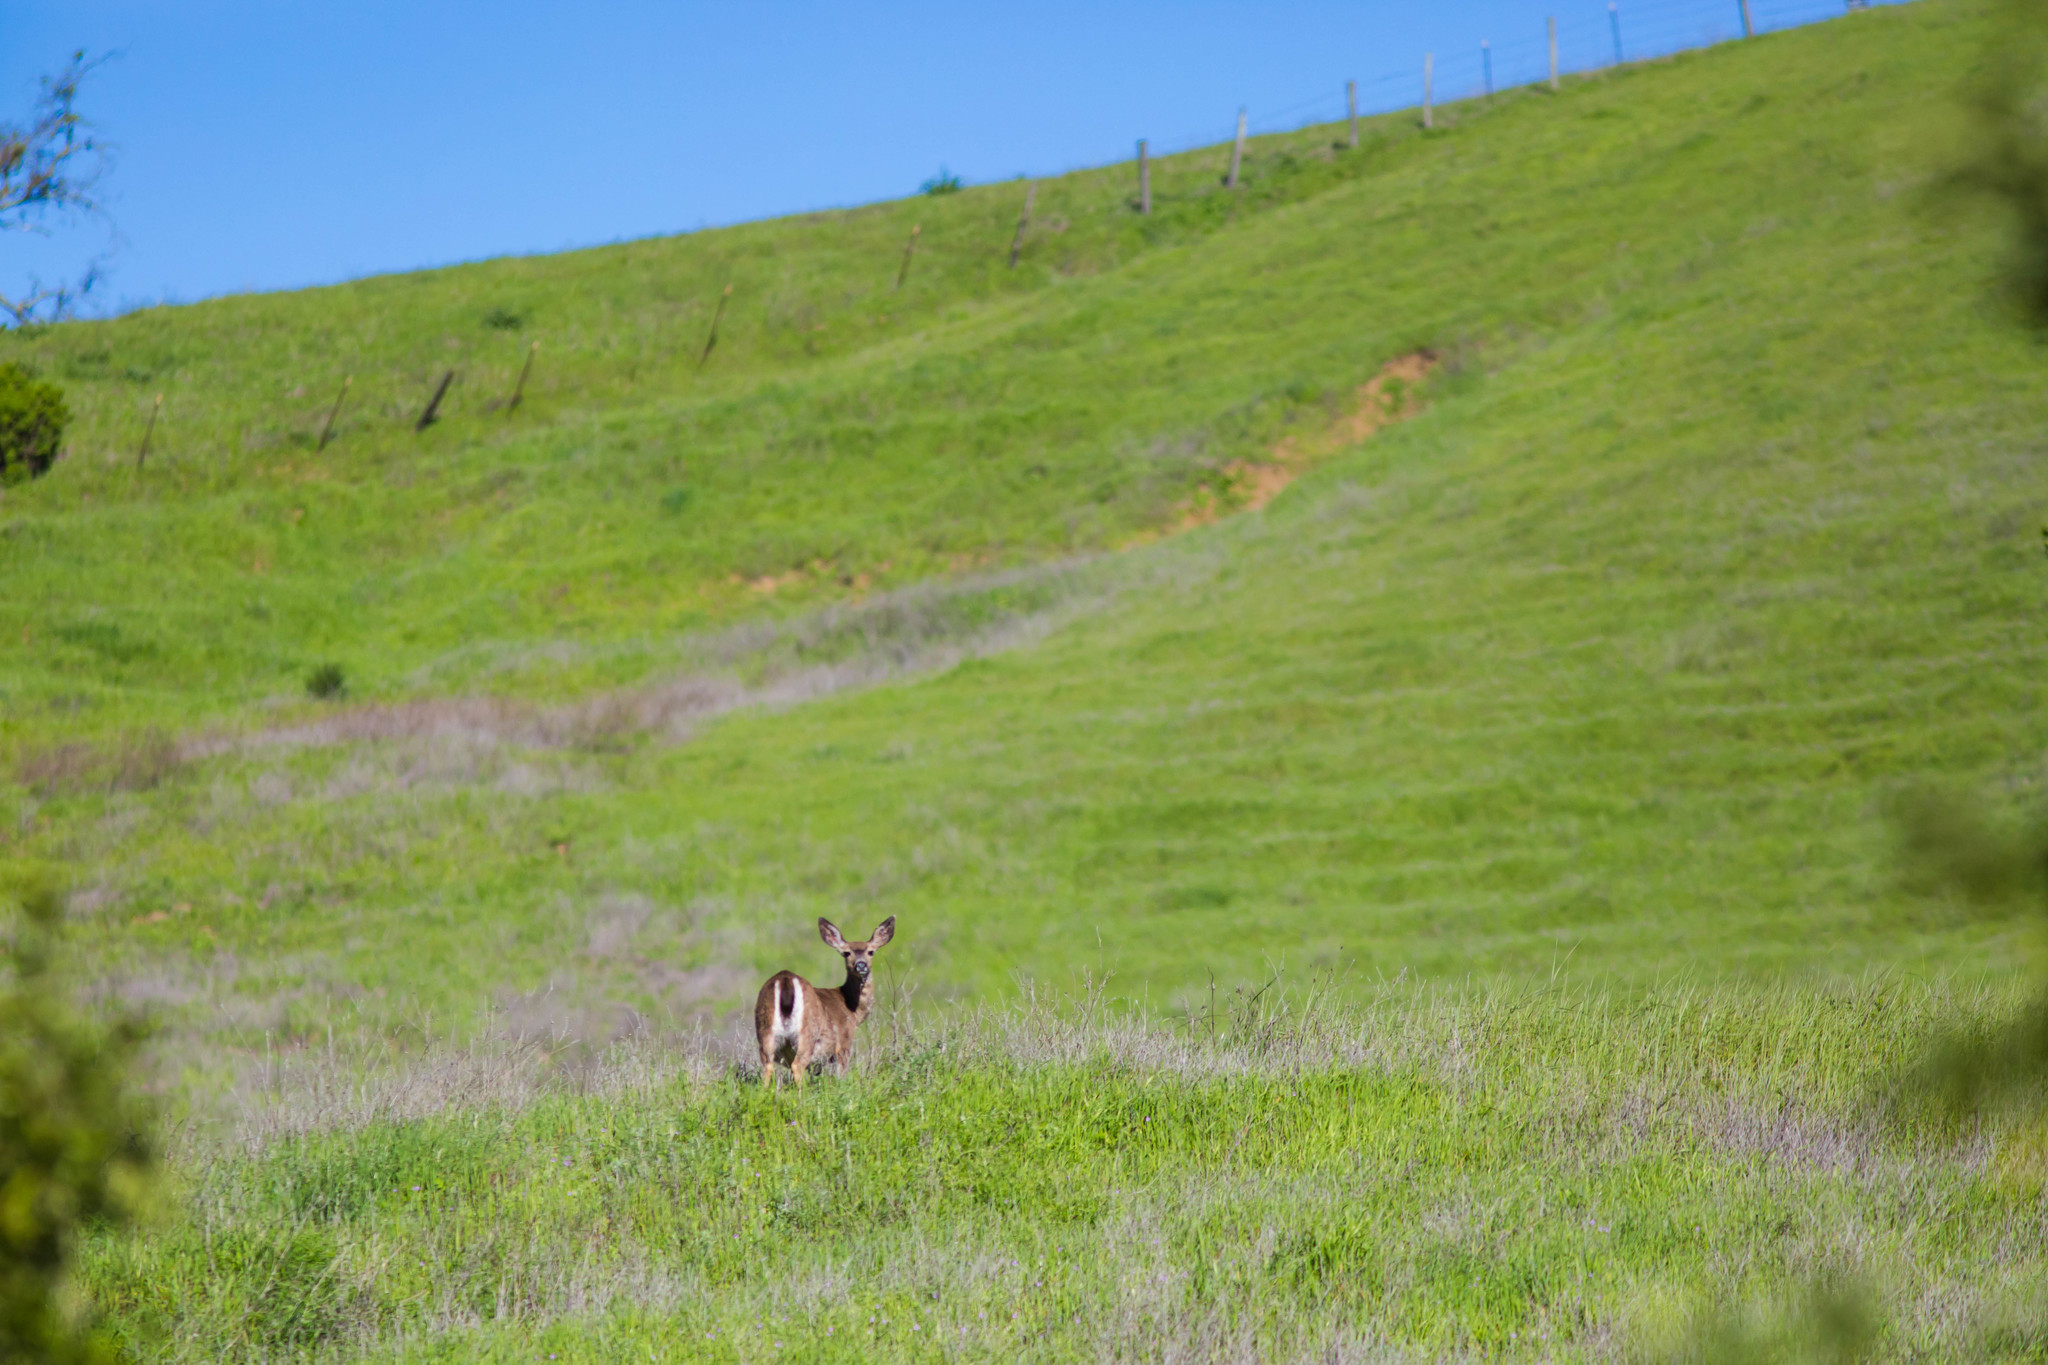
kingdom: Animalia
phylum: Chordata
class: Mammalia
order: Artiodactyla
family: Cervidae
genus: Odocoileus
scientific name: Odocoileus hemionus
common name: Mule deer
